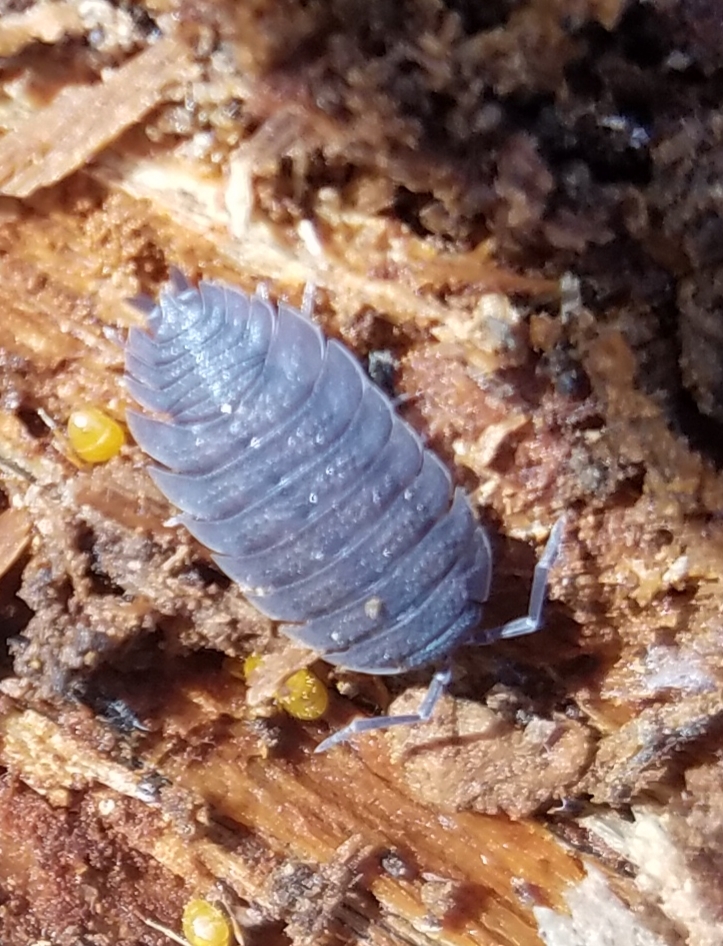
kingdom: Animalia
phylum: Arthropoda
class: Malacostraca
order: Isopoda
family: Porcellionidae
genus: Porcellio
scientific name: Porcellio scaber
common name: Common rough woodlouse
